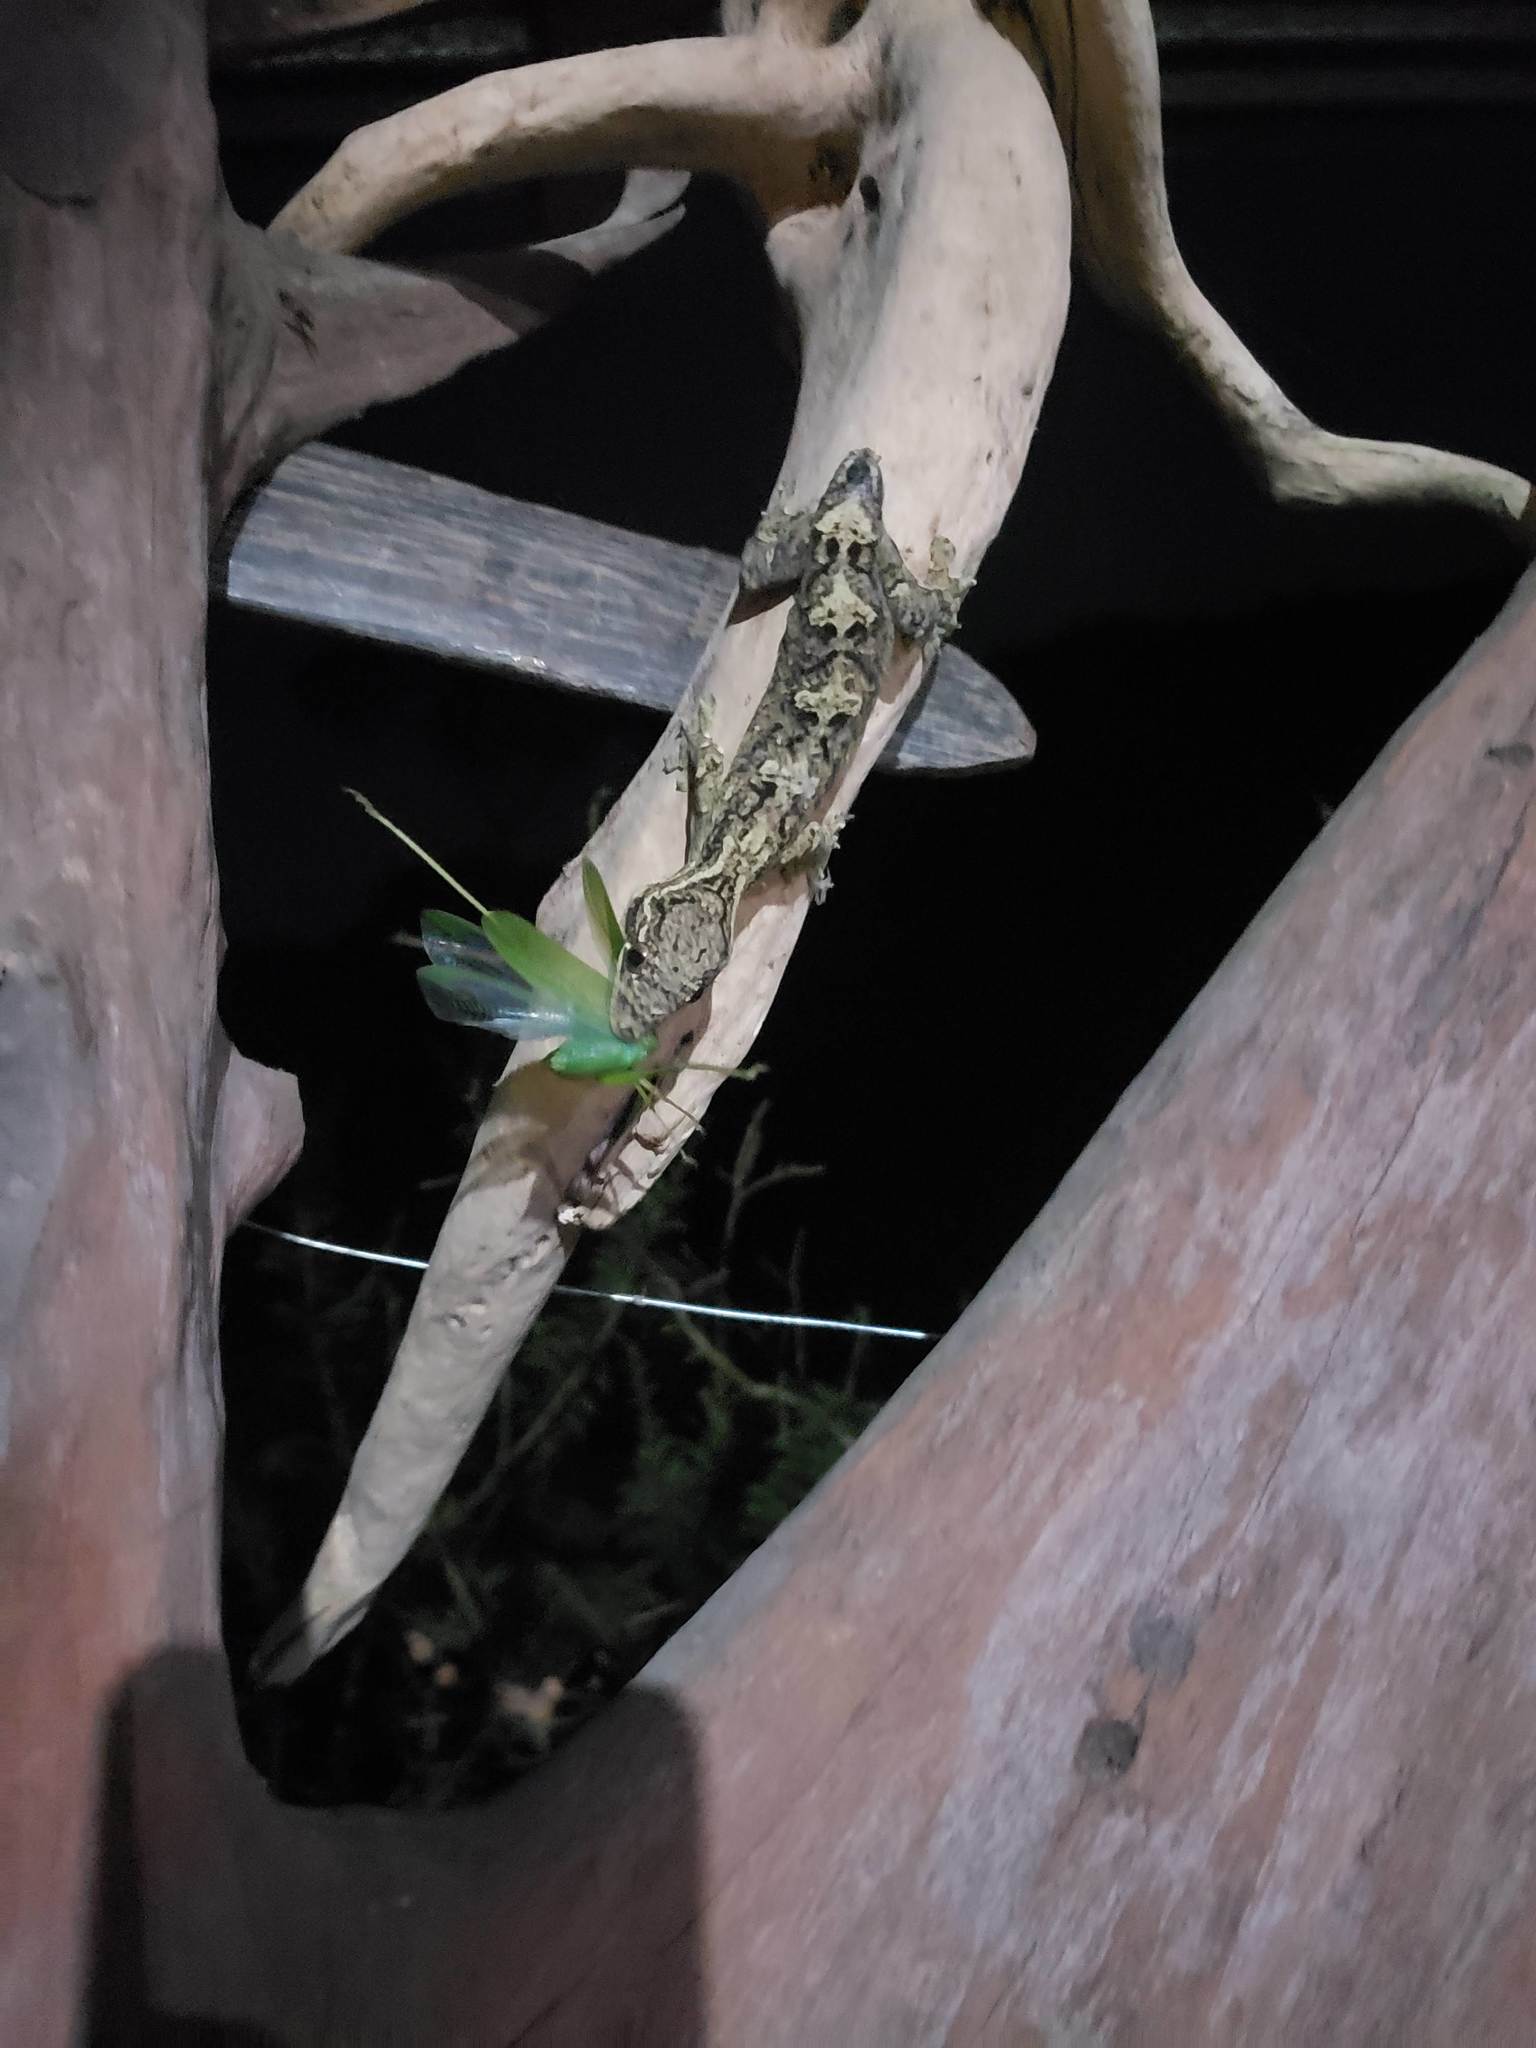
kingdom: Animalia
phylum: Chordata
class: Squamata
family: Phyllodactylidae
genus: Thecadactylus
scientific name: Thecadactylus solimoensis
